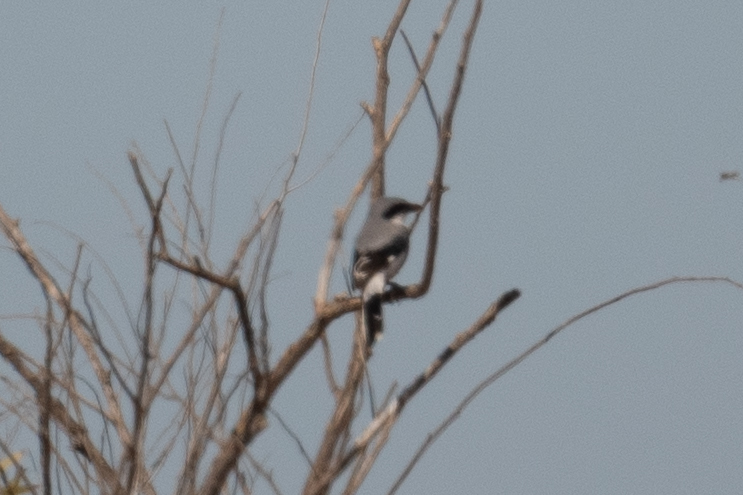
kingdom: Animalia
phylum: Chordata
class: Aves
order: Passeriformes
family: Laniidae
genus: Lanius
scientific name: Lanius ludovicianus
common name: Loggerhead shrike
